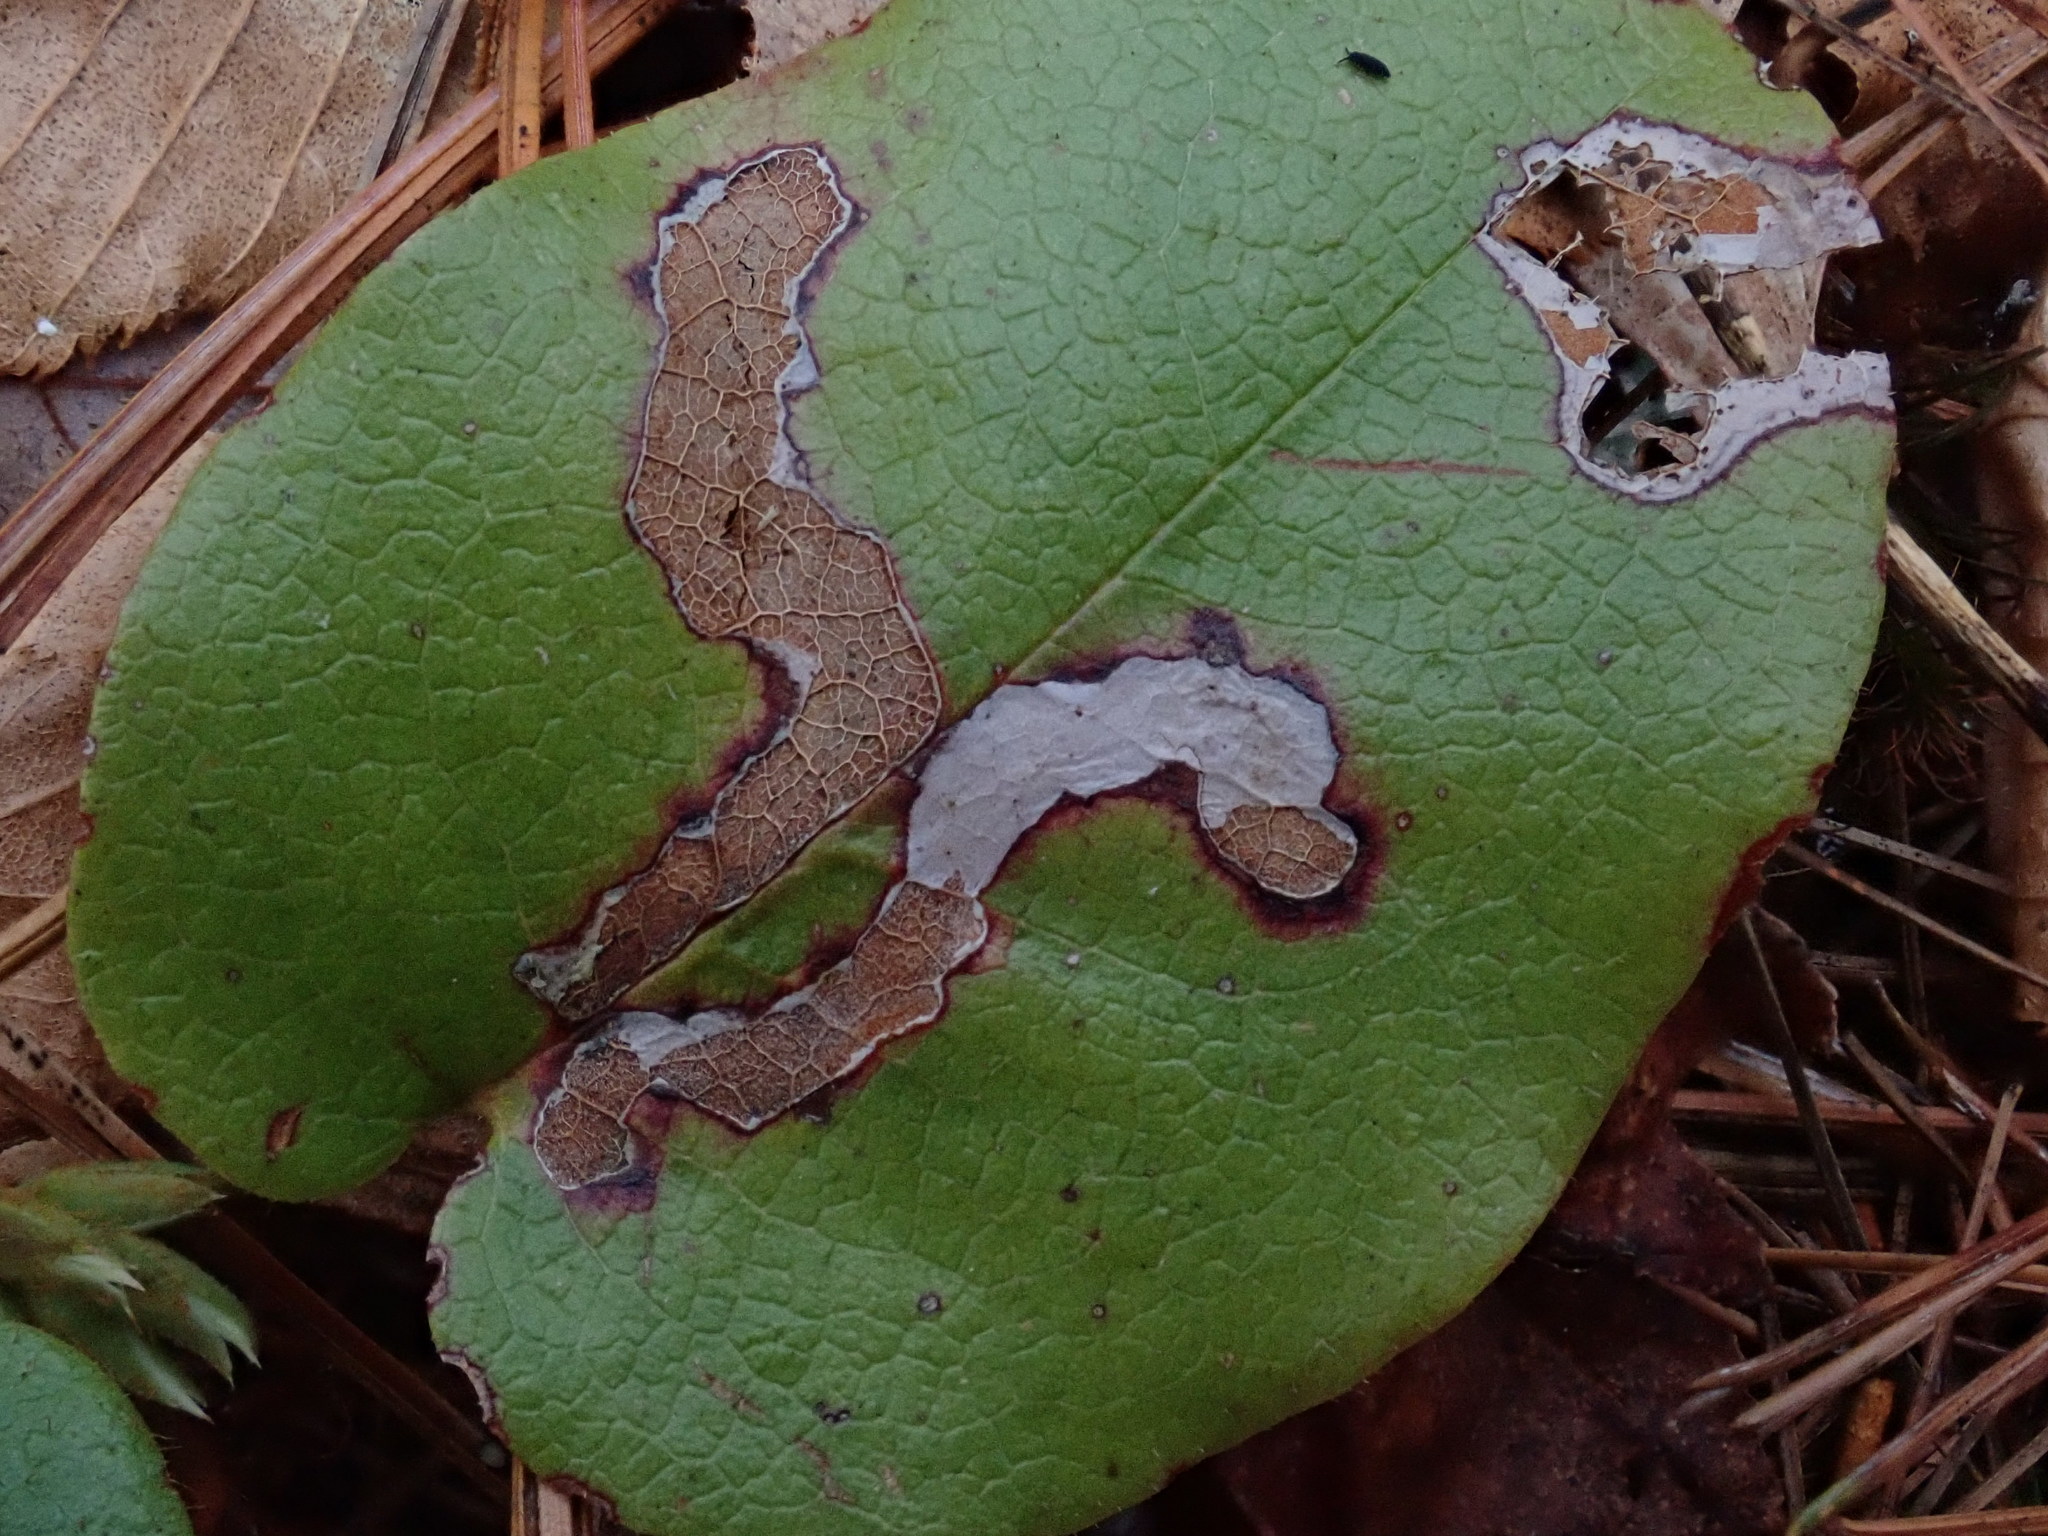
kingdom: Animalia
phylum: Arthropoda
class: Insecta
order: Coleoptera
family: Buprestidae
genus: Brachys
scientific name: Brachys
